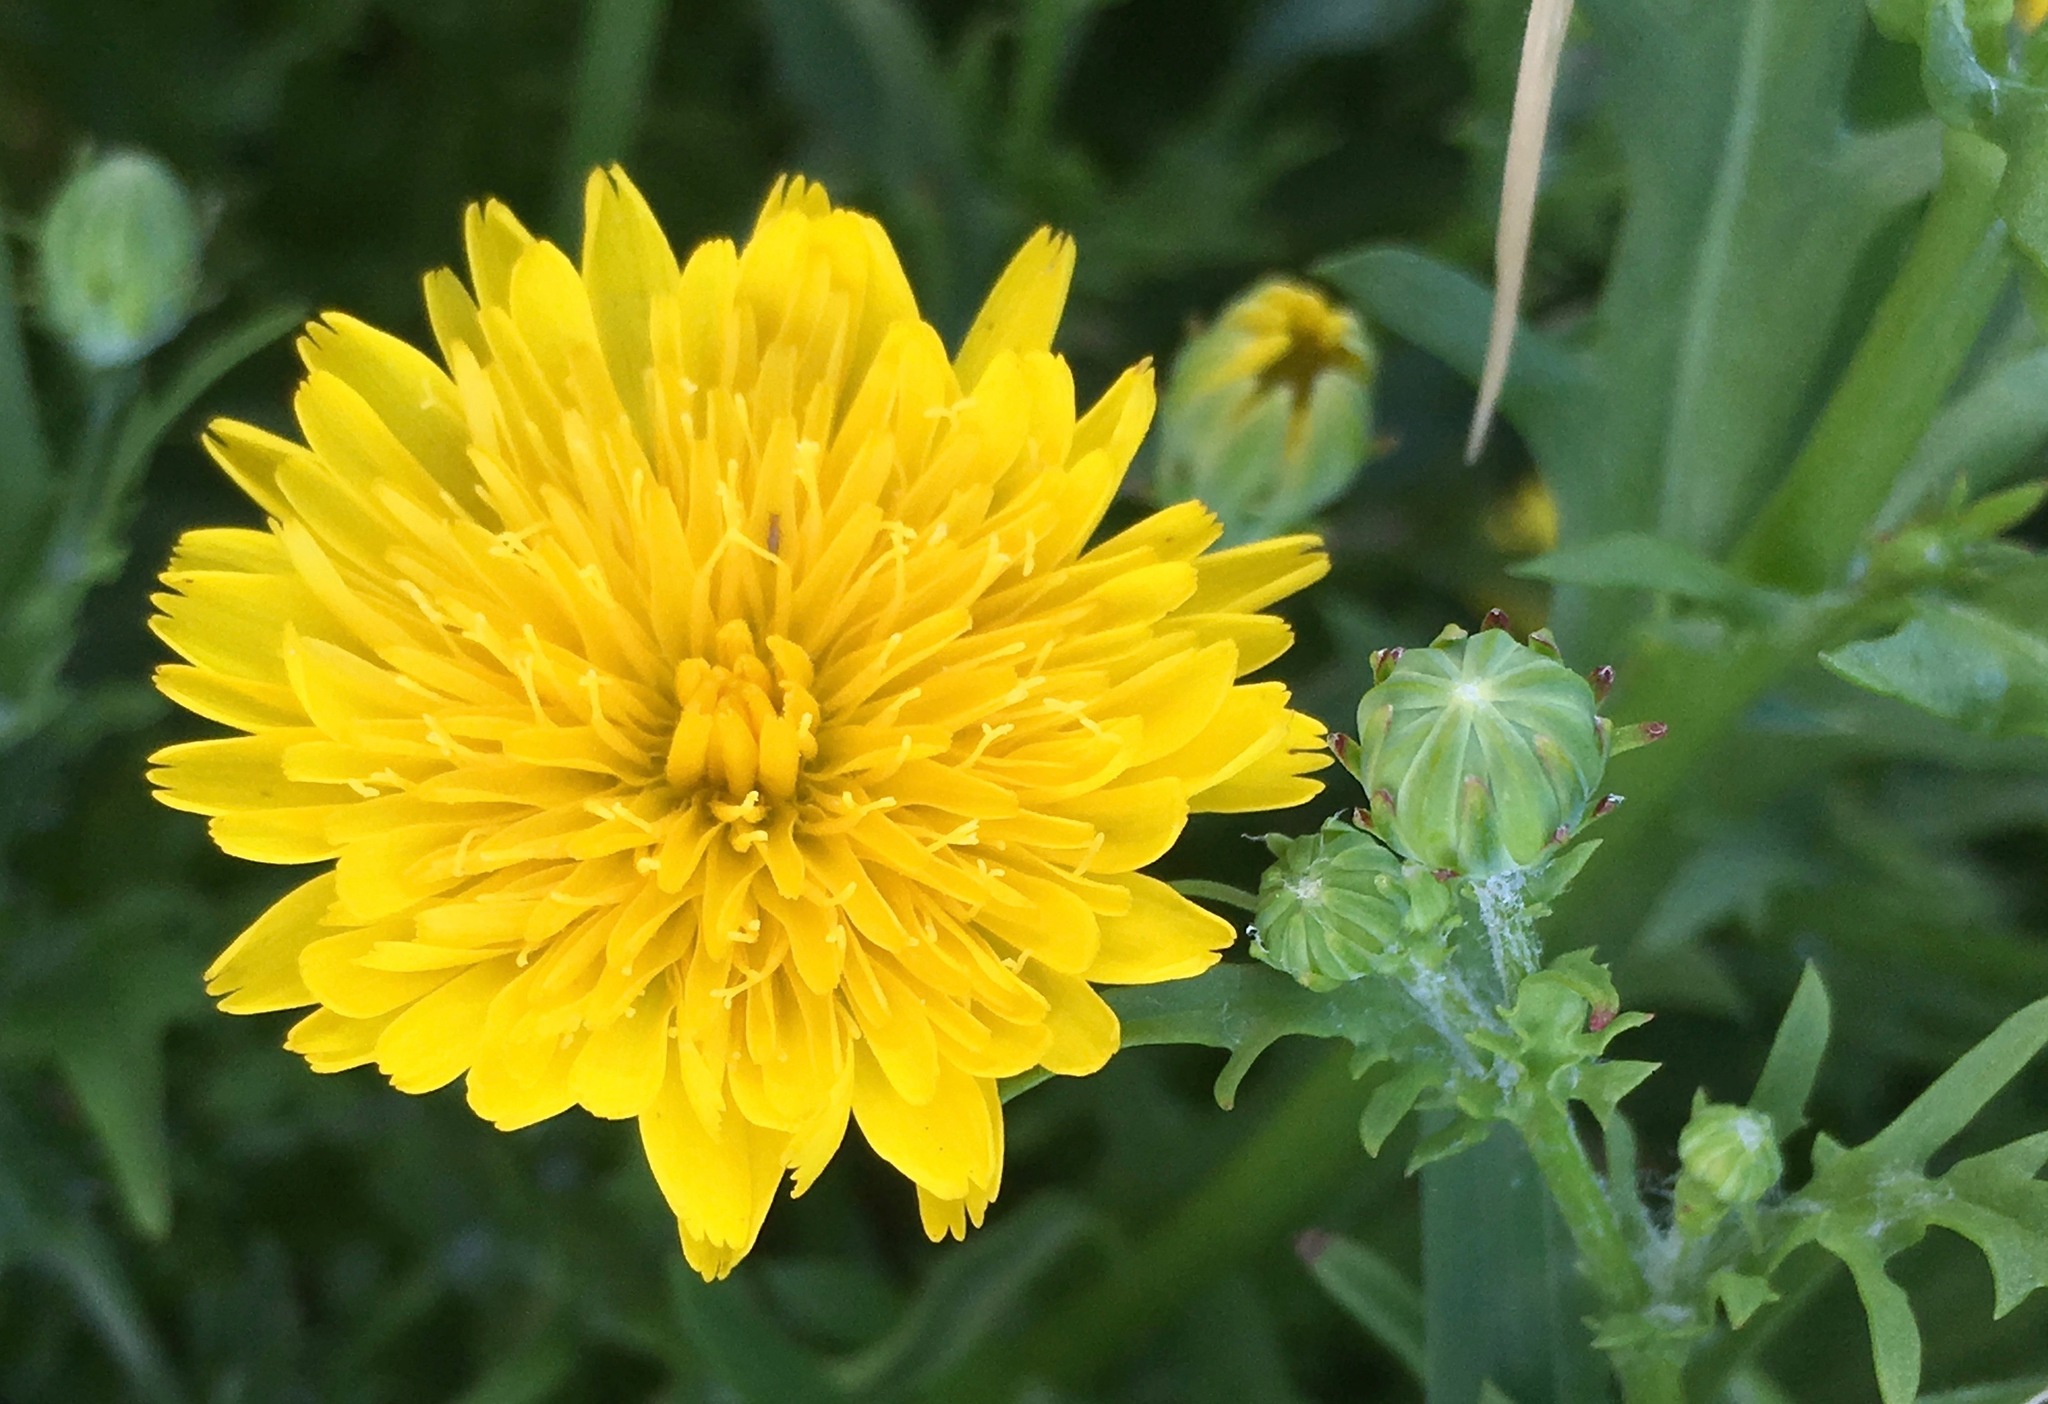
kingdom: Plantae
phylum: Tracheophyta
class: Magnoliopsida
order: Asterales
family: Asteraceae
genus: Malacothrix
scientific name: Malacothrix foliosa
